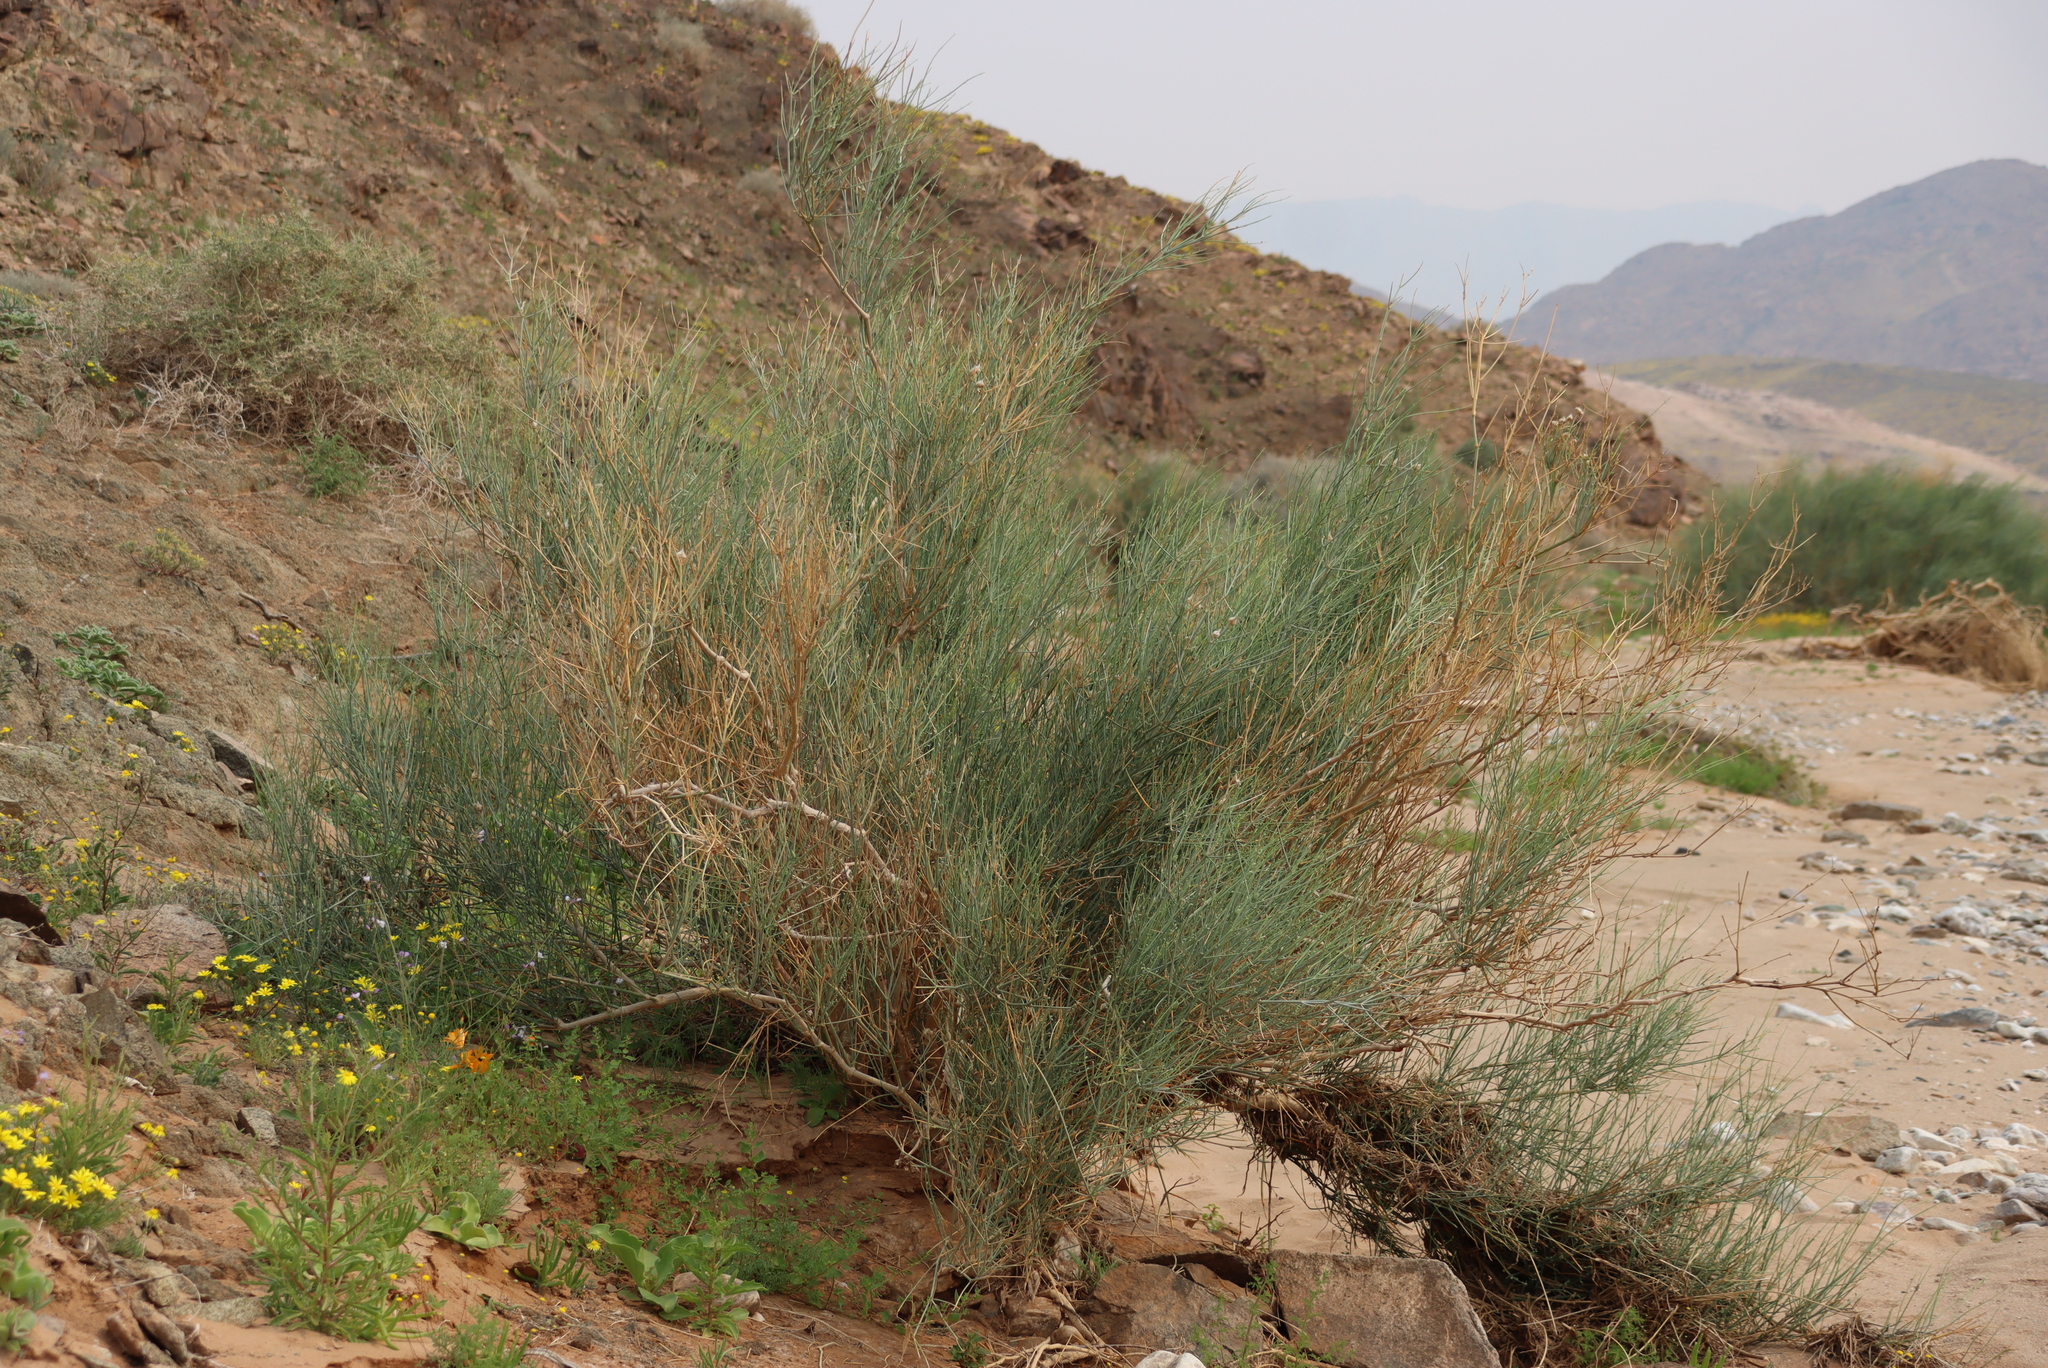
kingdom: Plantae
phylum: Tracheophyta
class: Magnoliopsida
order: Zygophyllales
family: Zygophyllaceae
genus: Sisyndite
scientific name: Sisyndite spartea
